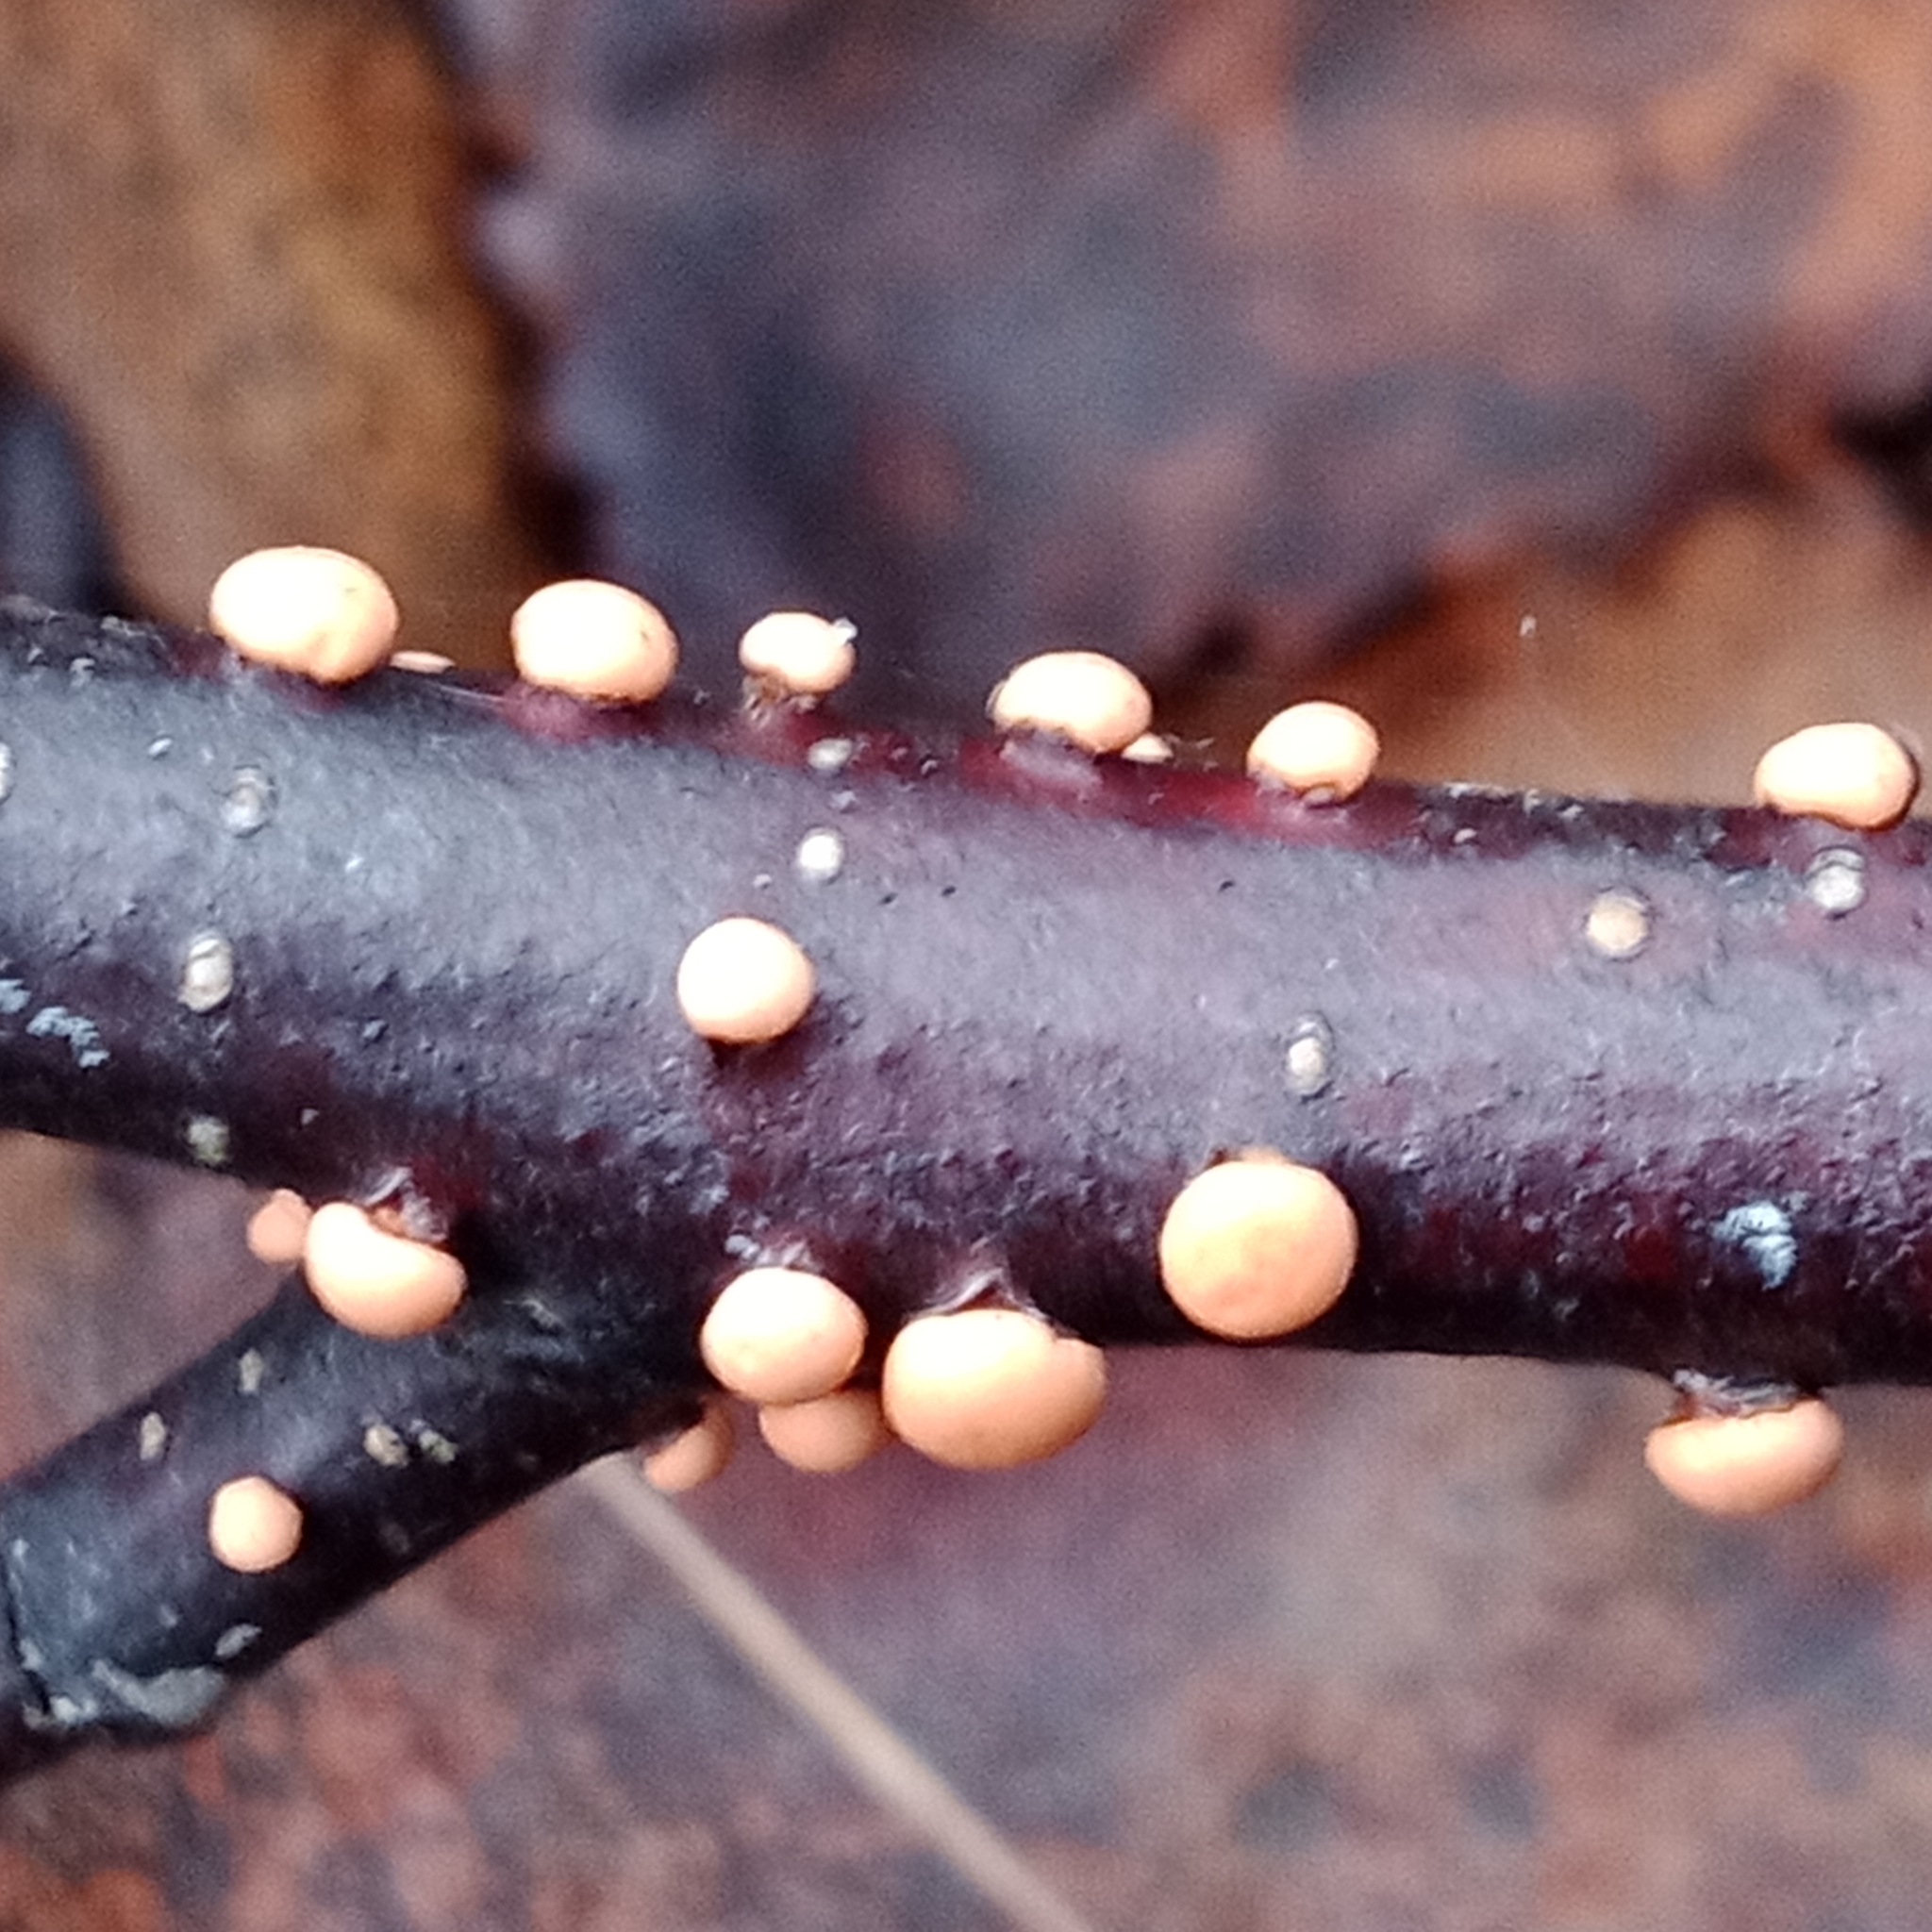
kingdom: Fungi
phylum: Ascomycota
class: Sordariomycetes
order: Hypocreales
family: Nectriaceae
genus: Nectria
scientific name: Nectria cinnabarina
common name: Coral spot
